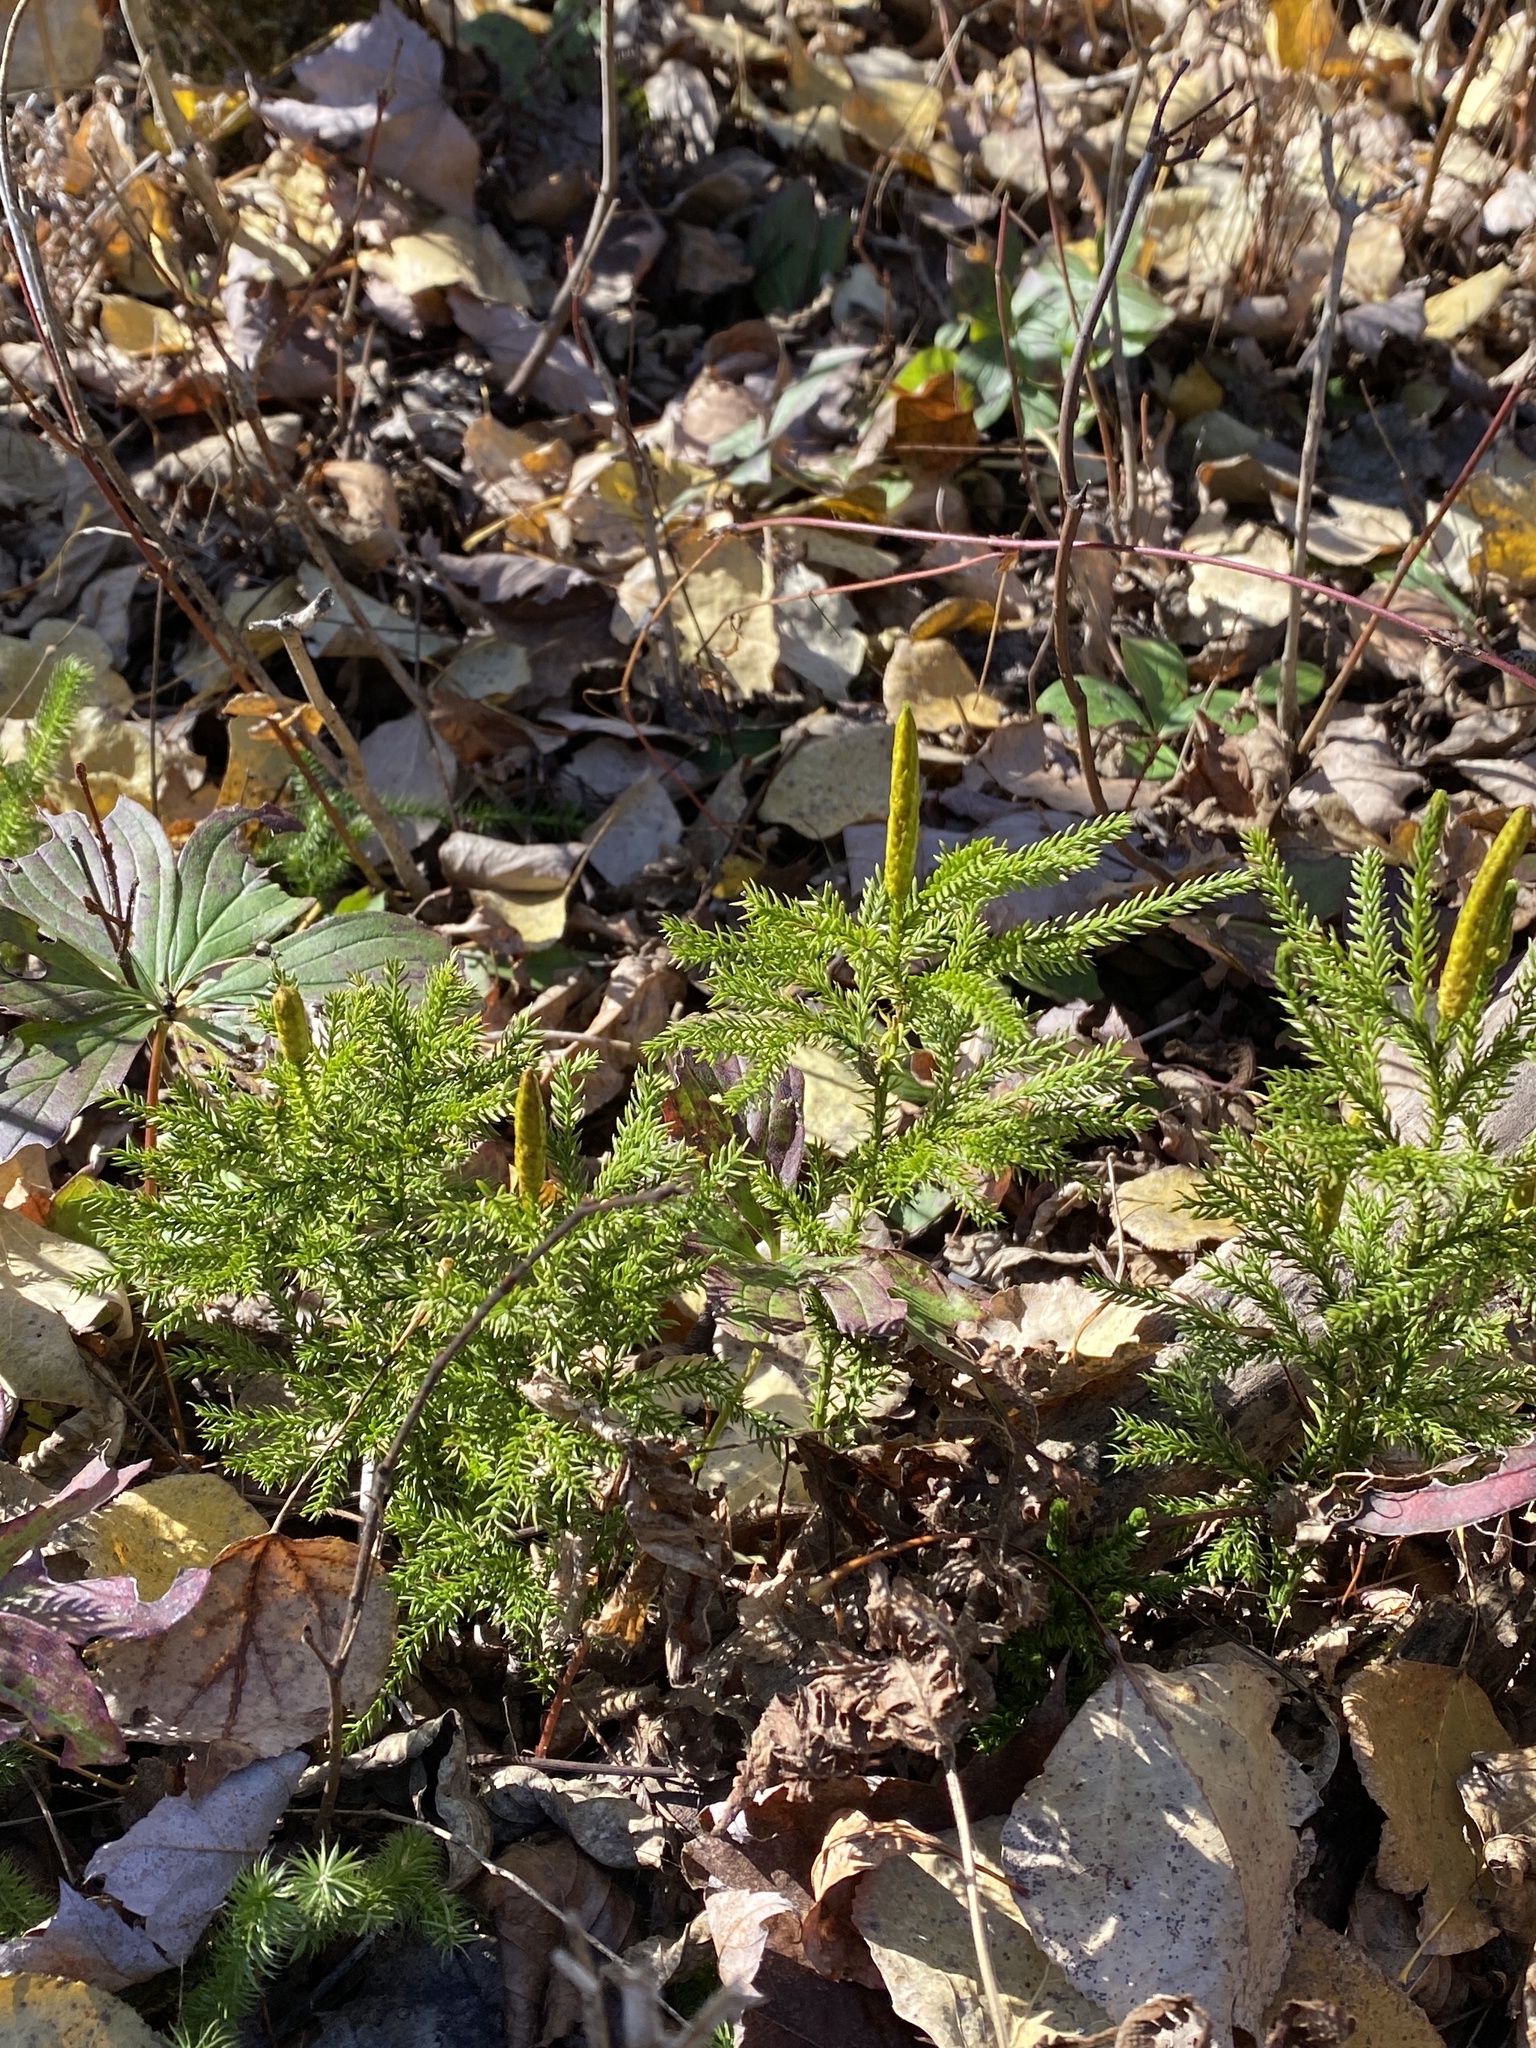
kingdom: Plantae
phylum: Tracheophyta
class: Lycopodiopsida
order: Lycopodiales
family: Lycopodiaceae
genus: Dendrolycopodium
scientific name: Dendrolycopodium dendroideum
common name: Northern tree-clubmoss
